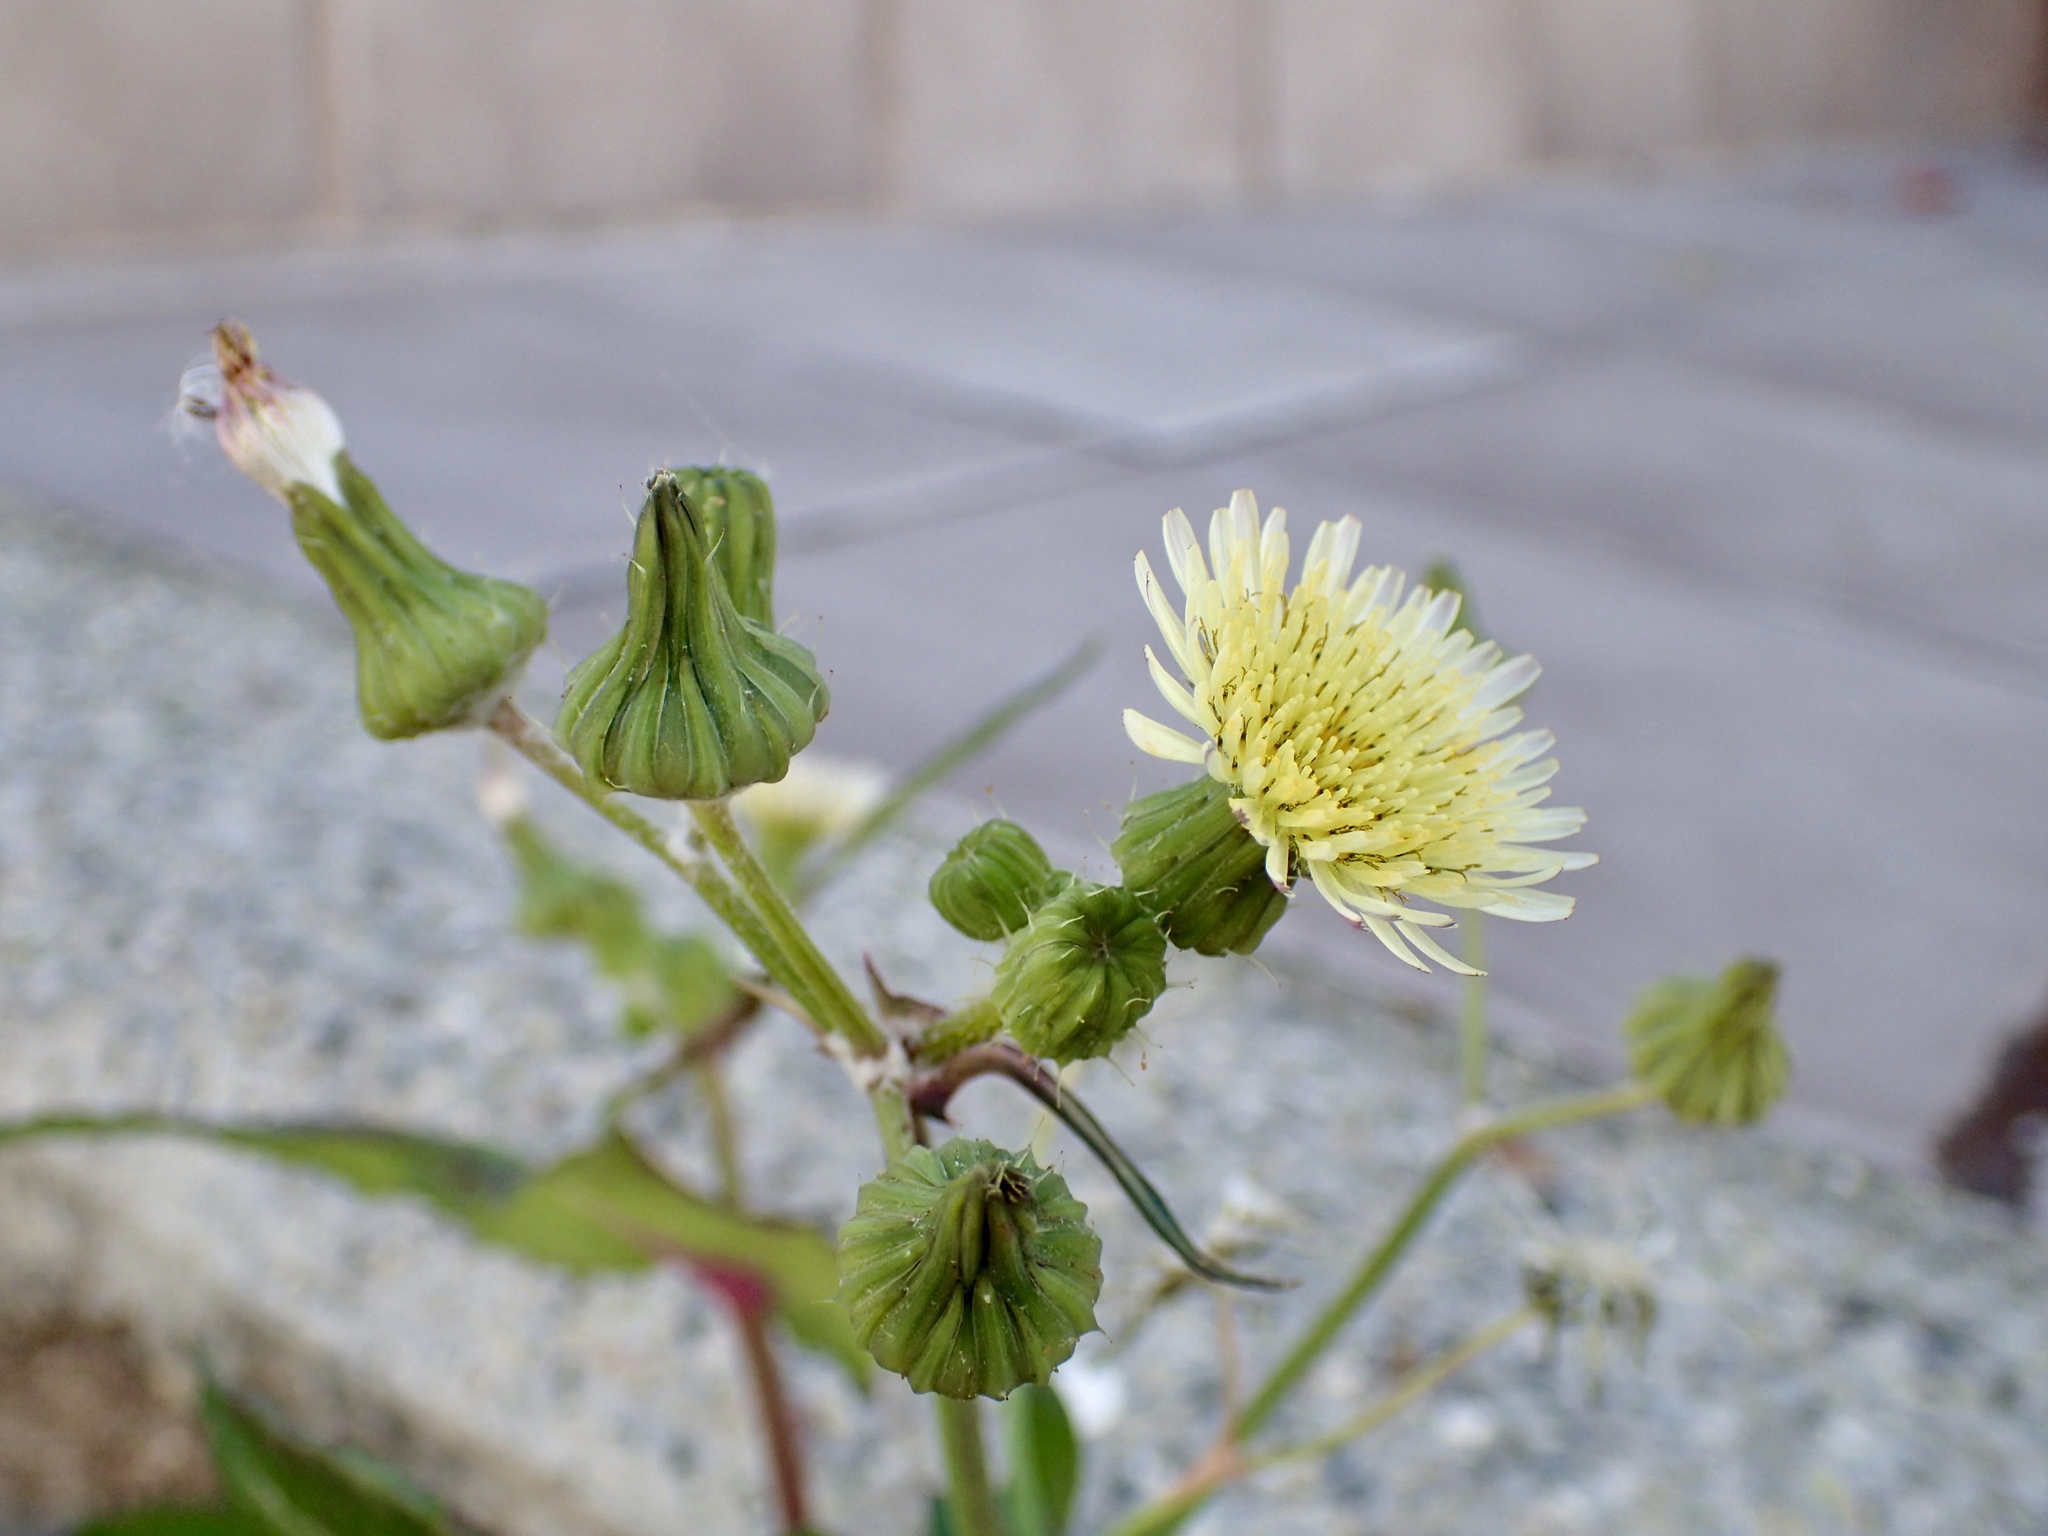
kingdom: Plantae
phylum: Tracheophyta
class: Magnoliopsida
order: Asterales
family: Asteraceae
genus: Sonchus
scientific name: Sonchus oleraceus
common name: Common sowthistle
